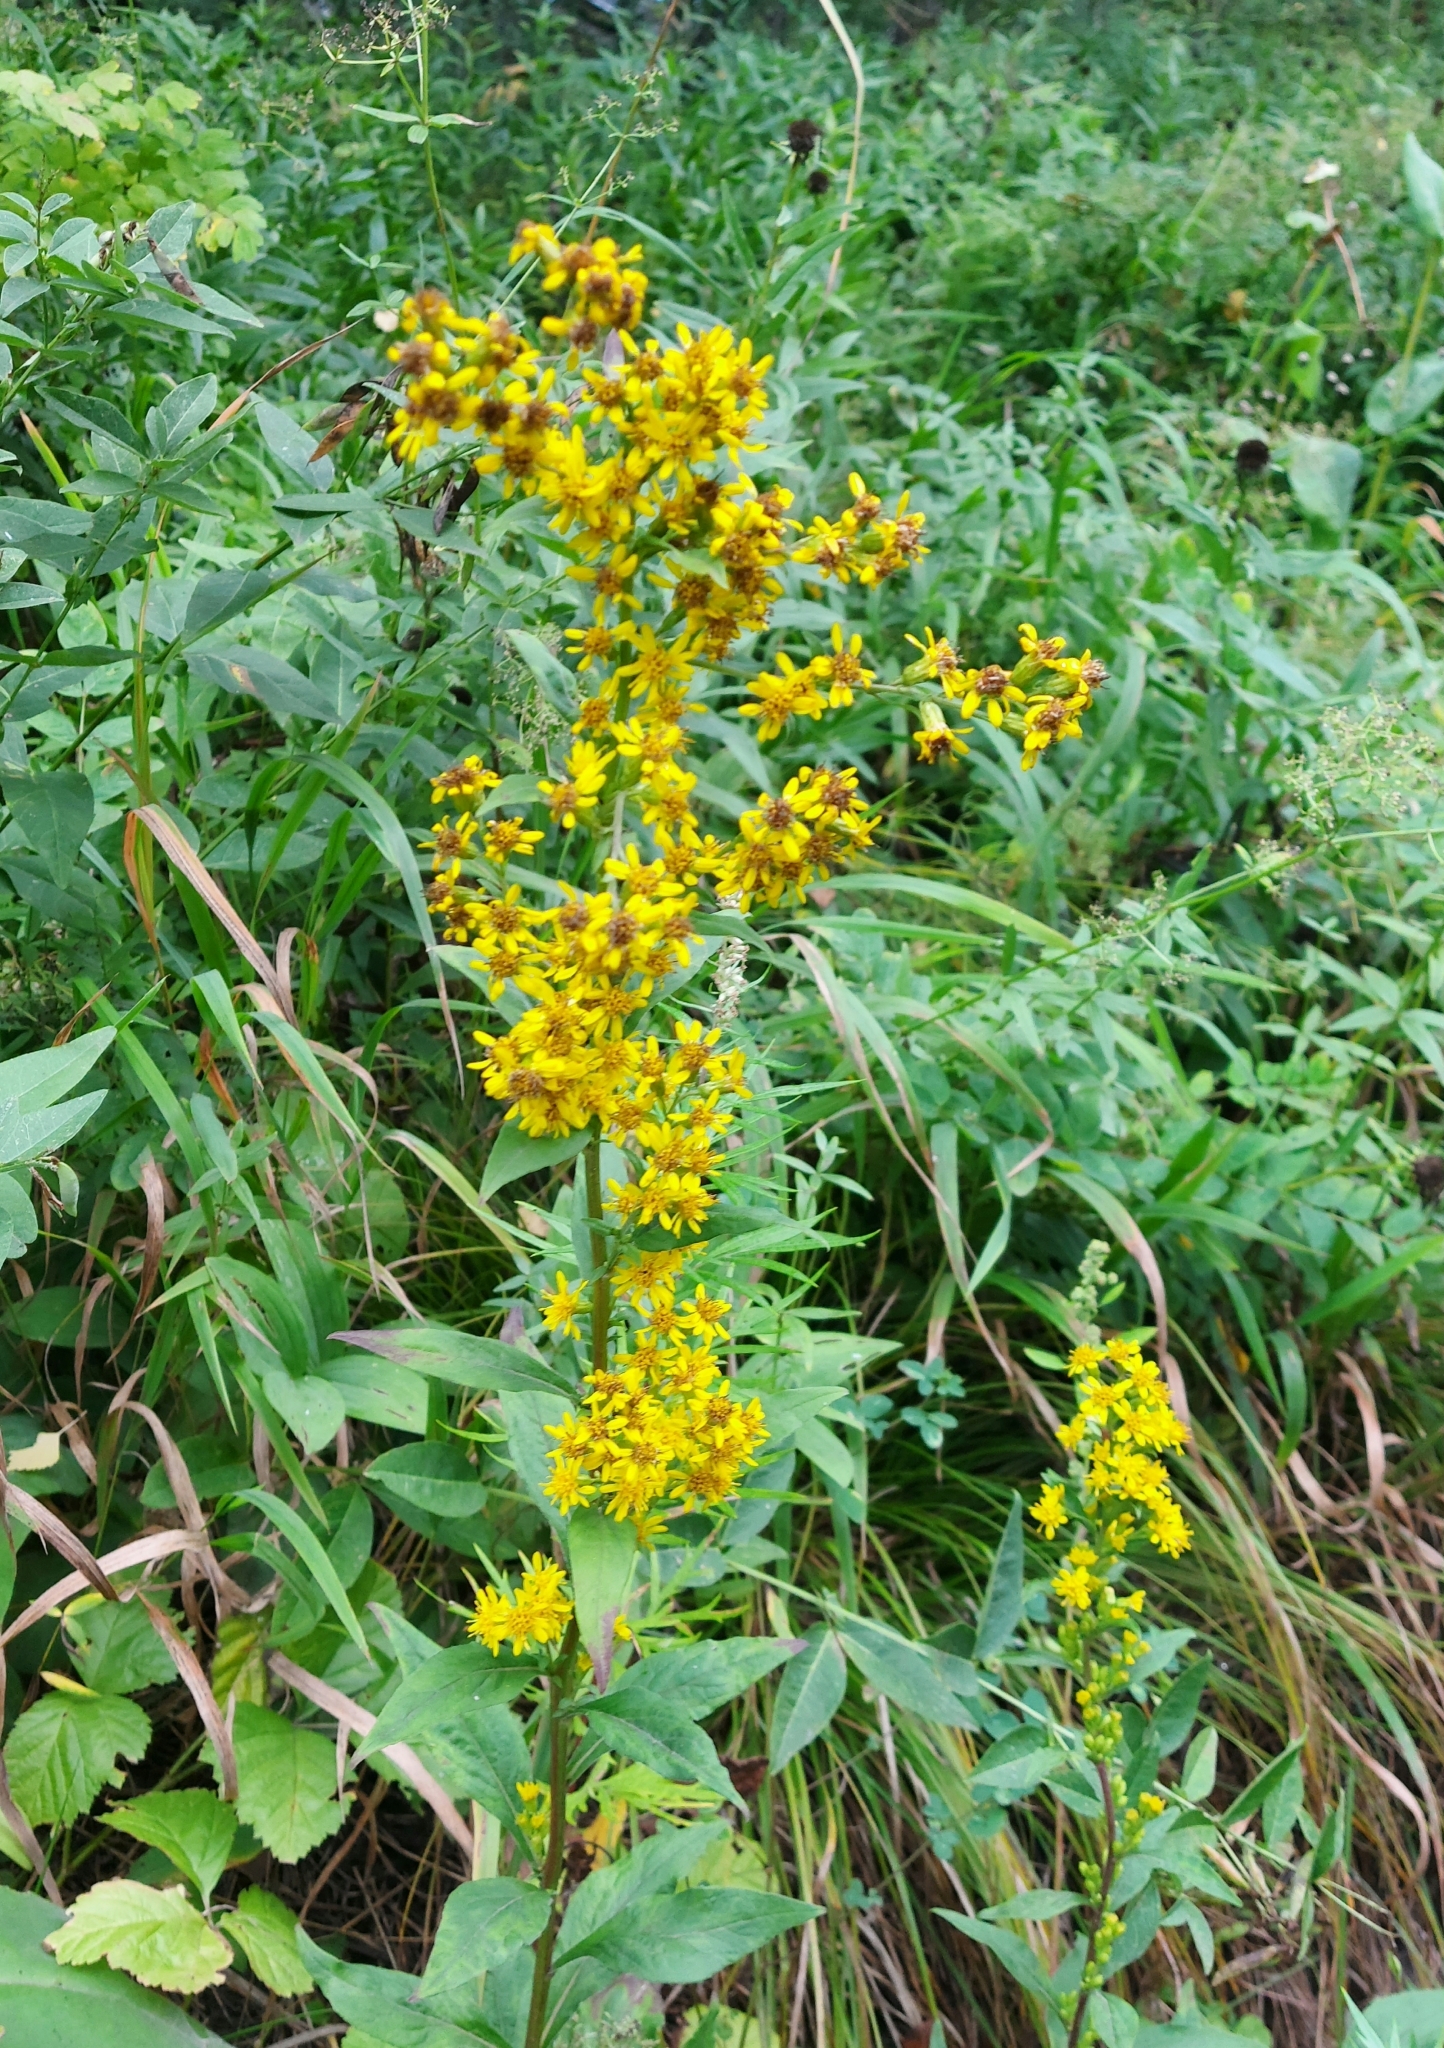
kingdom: Plantae
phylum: Tracheophyta
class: Magnoliopsida
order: Asterales
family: Asteraceae
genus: Solidago
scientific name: Solidago virgaurea
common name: Goldenrod
